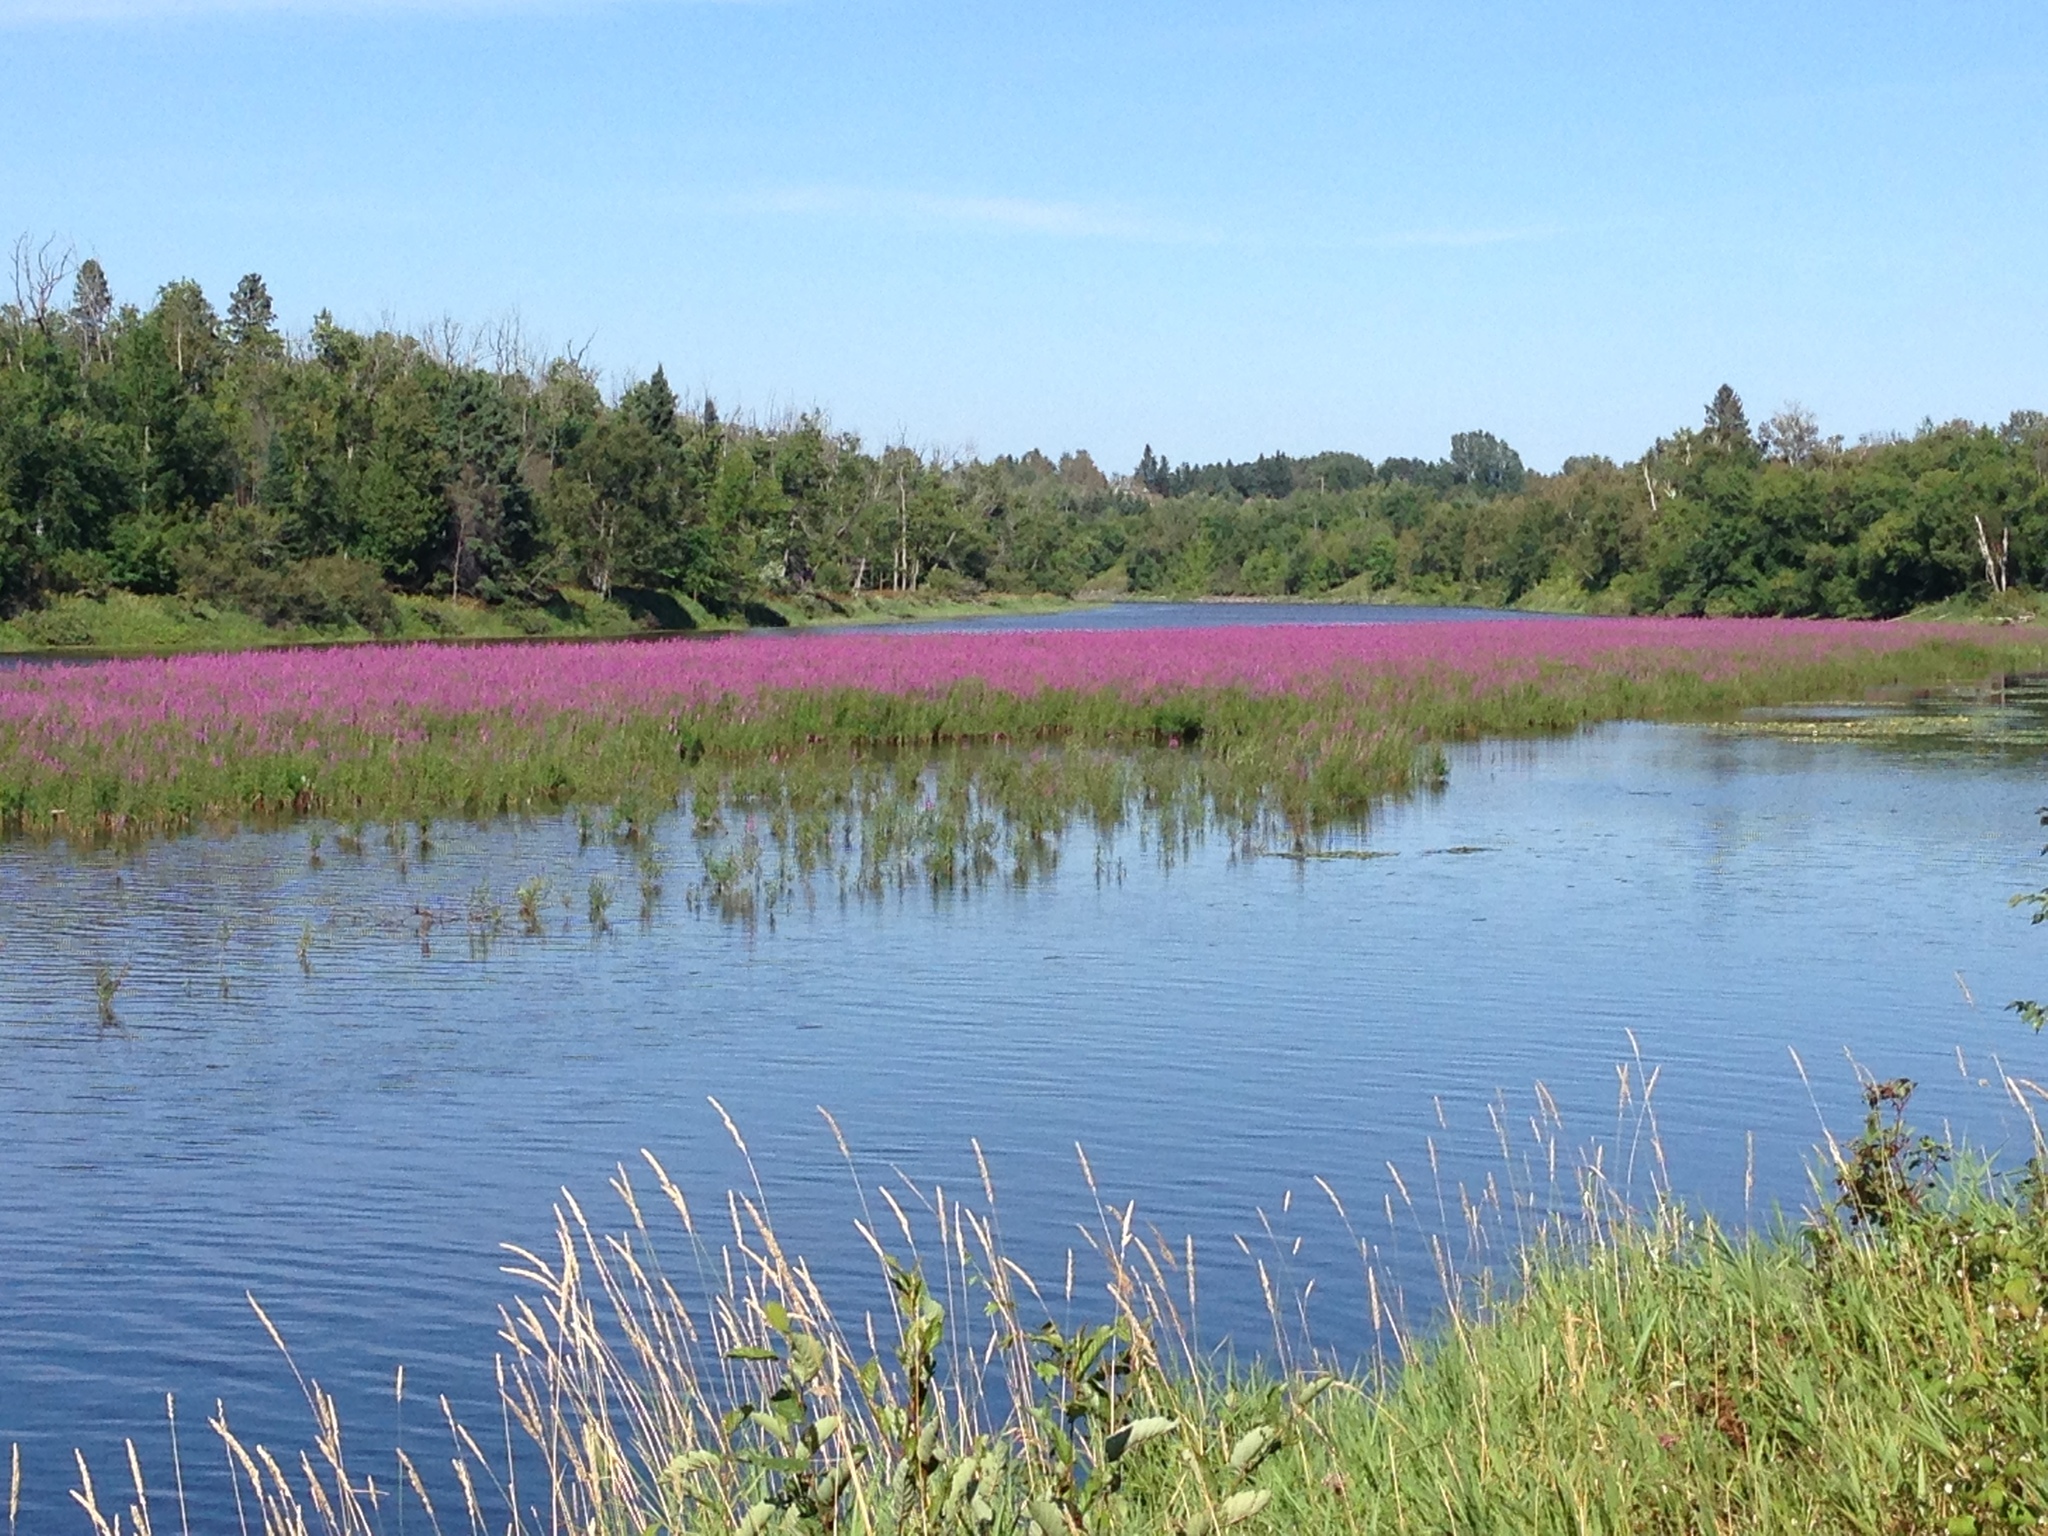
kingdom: Plantae
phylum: Tracheophyta
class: Magnoliopsida
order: Myrtales
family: Lythraceae
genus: Lythrum
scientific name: Lythrum salicaria
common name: Purple loosestrife
